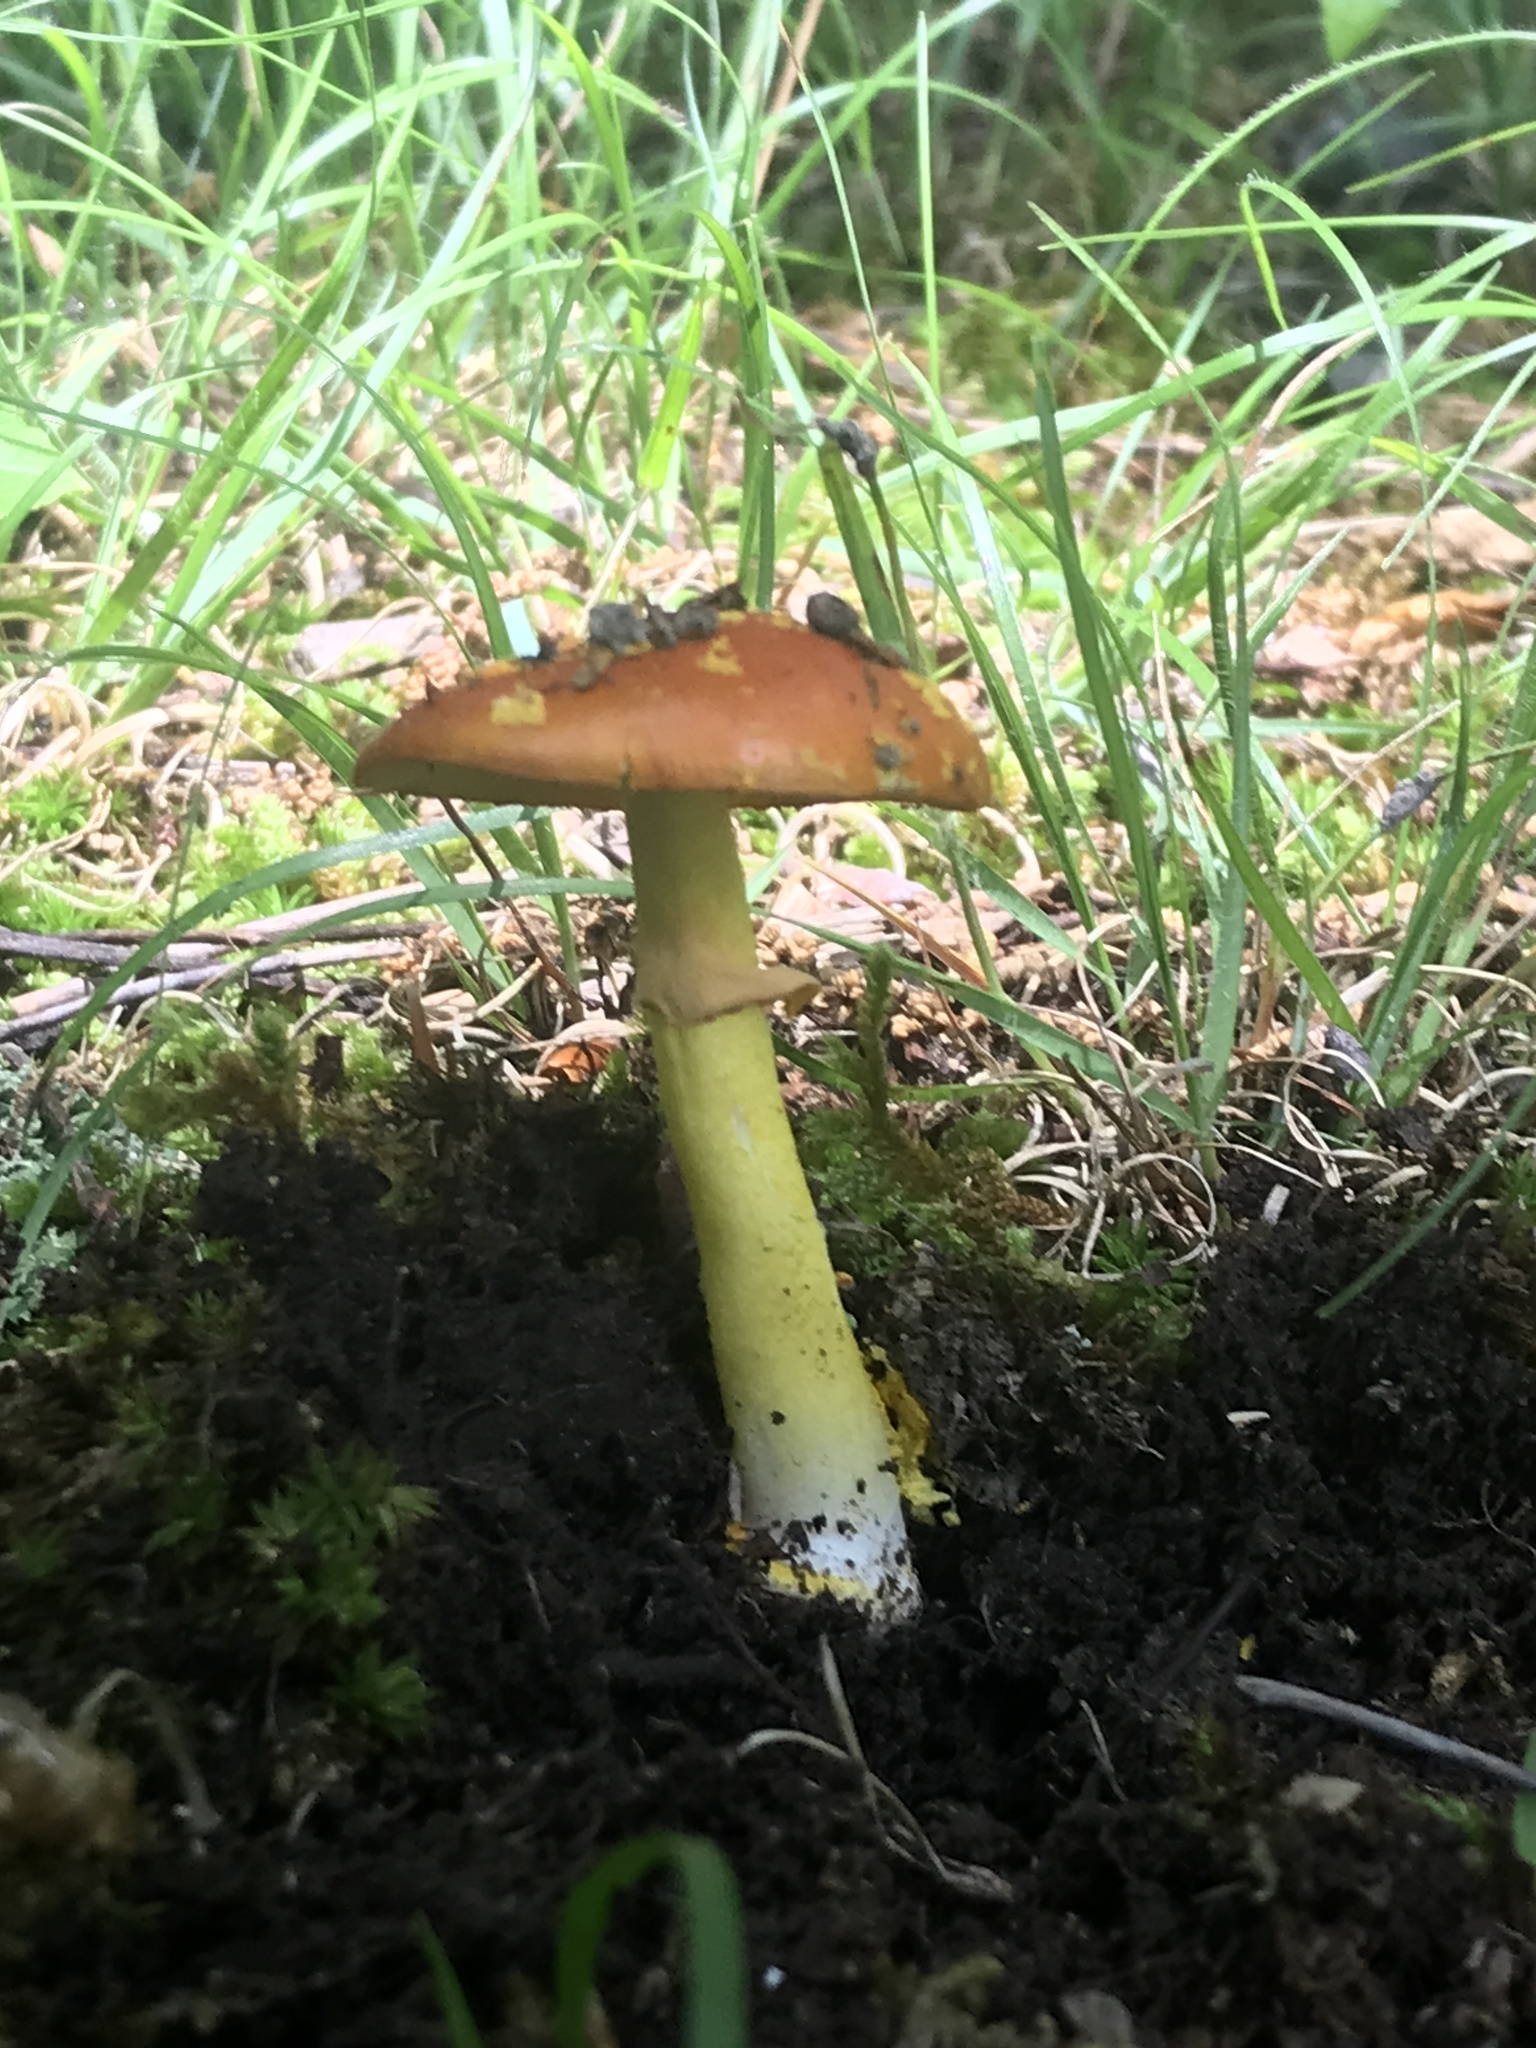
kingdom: Fungi
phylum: Basidiomycota
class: Agaricomycetes
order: Agaricales
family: Amanitaceae
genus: Amanita
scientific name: Amanita flavoconia
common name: Yellow patches
